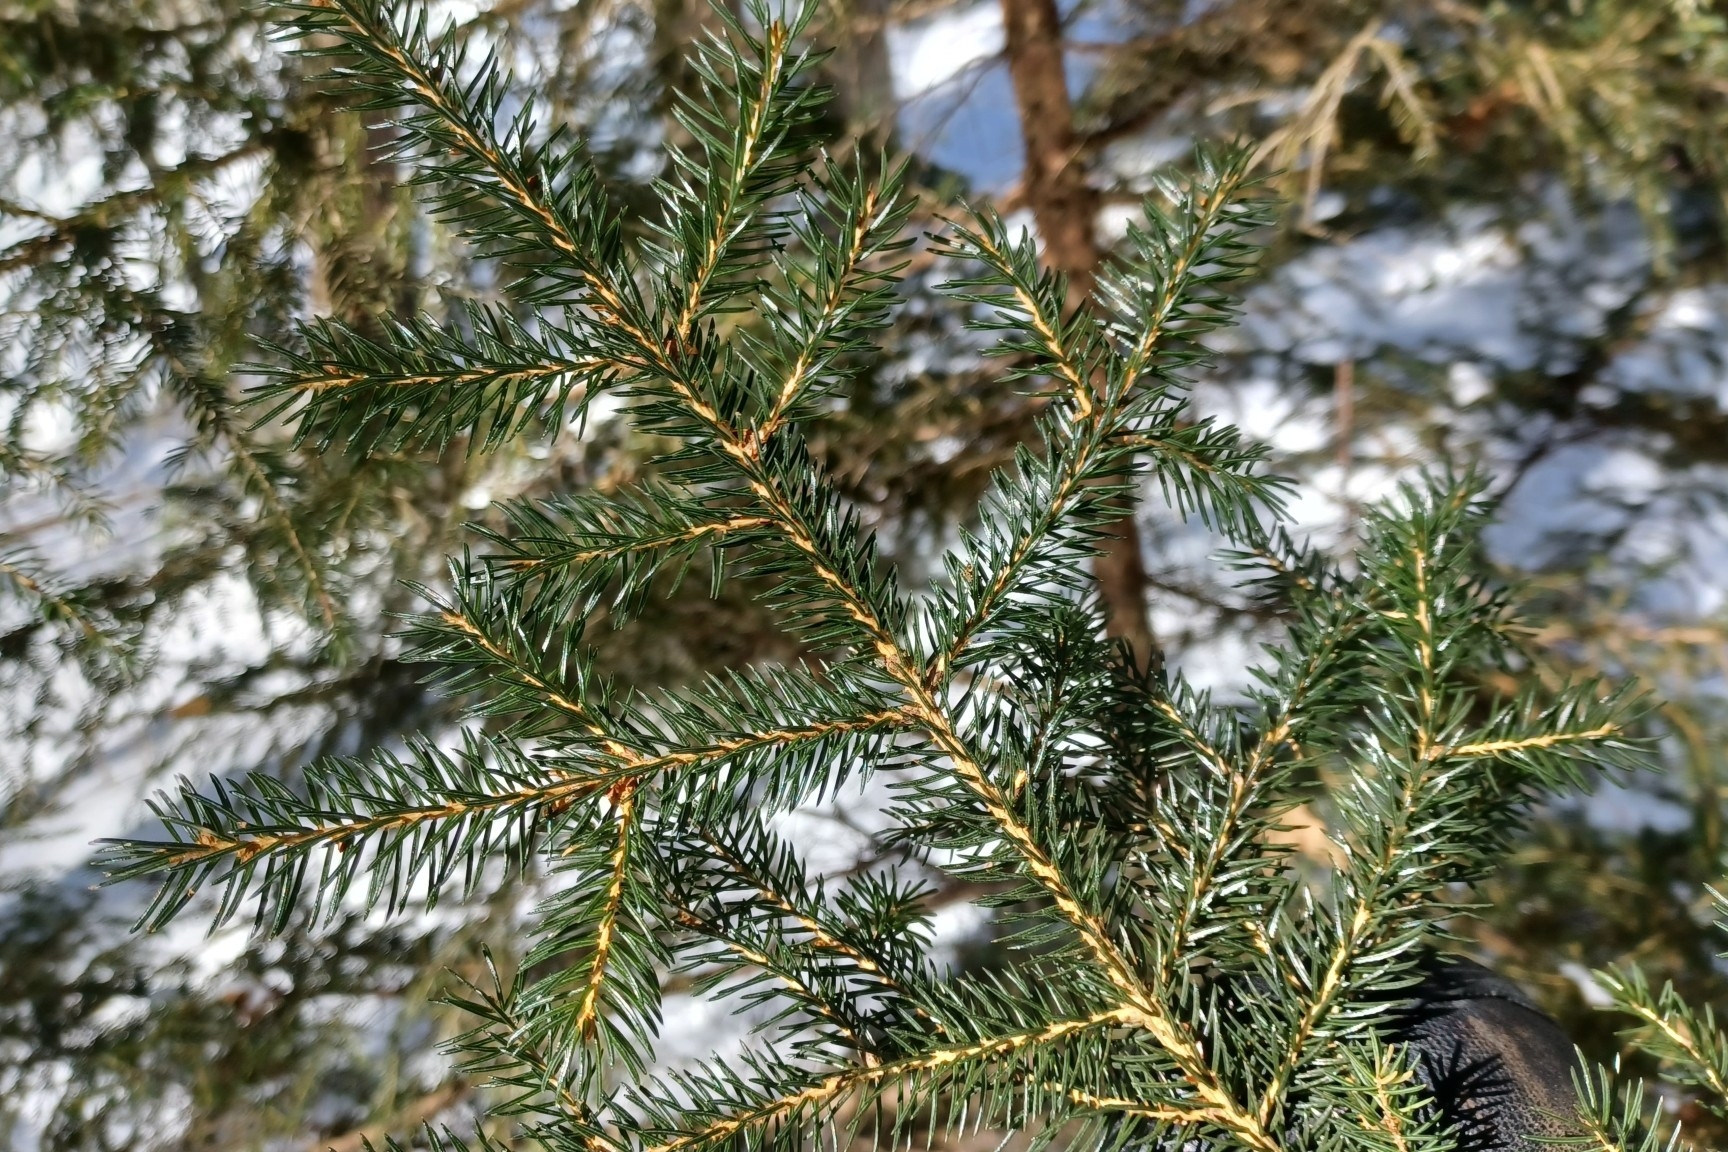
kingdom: Plantae
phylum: Tracheophyta
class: Pinopsida
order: Pinales
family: Pinaceae
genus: Picea
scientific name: Picea rubens
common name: Red spruce
